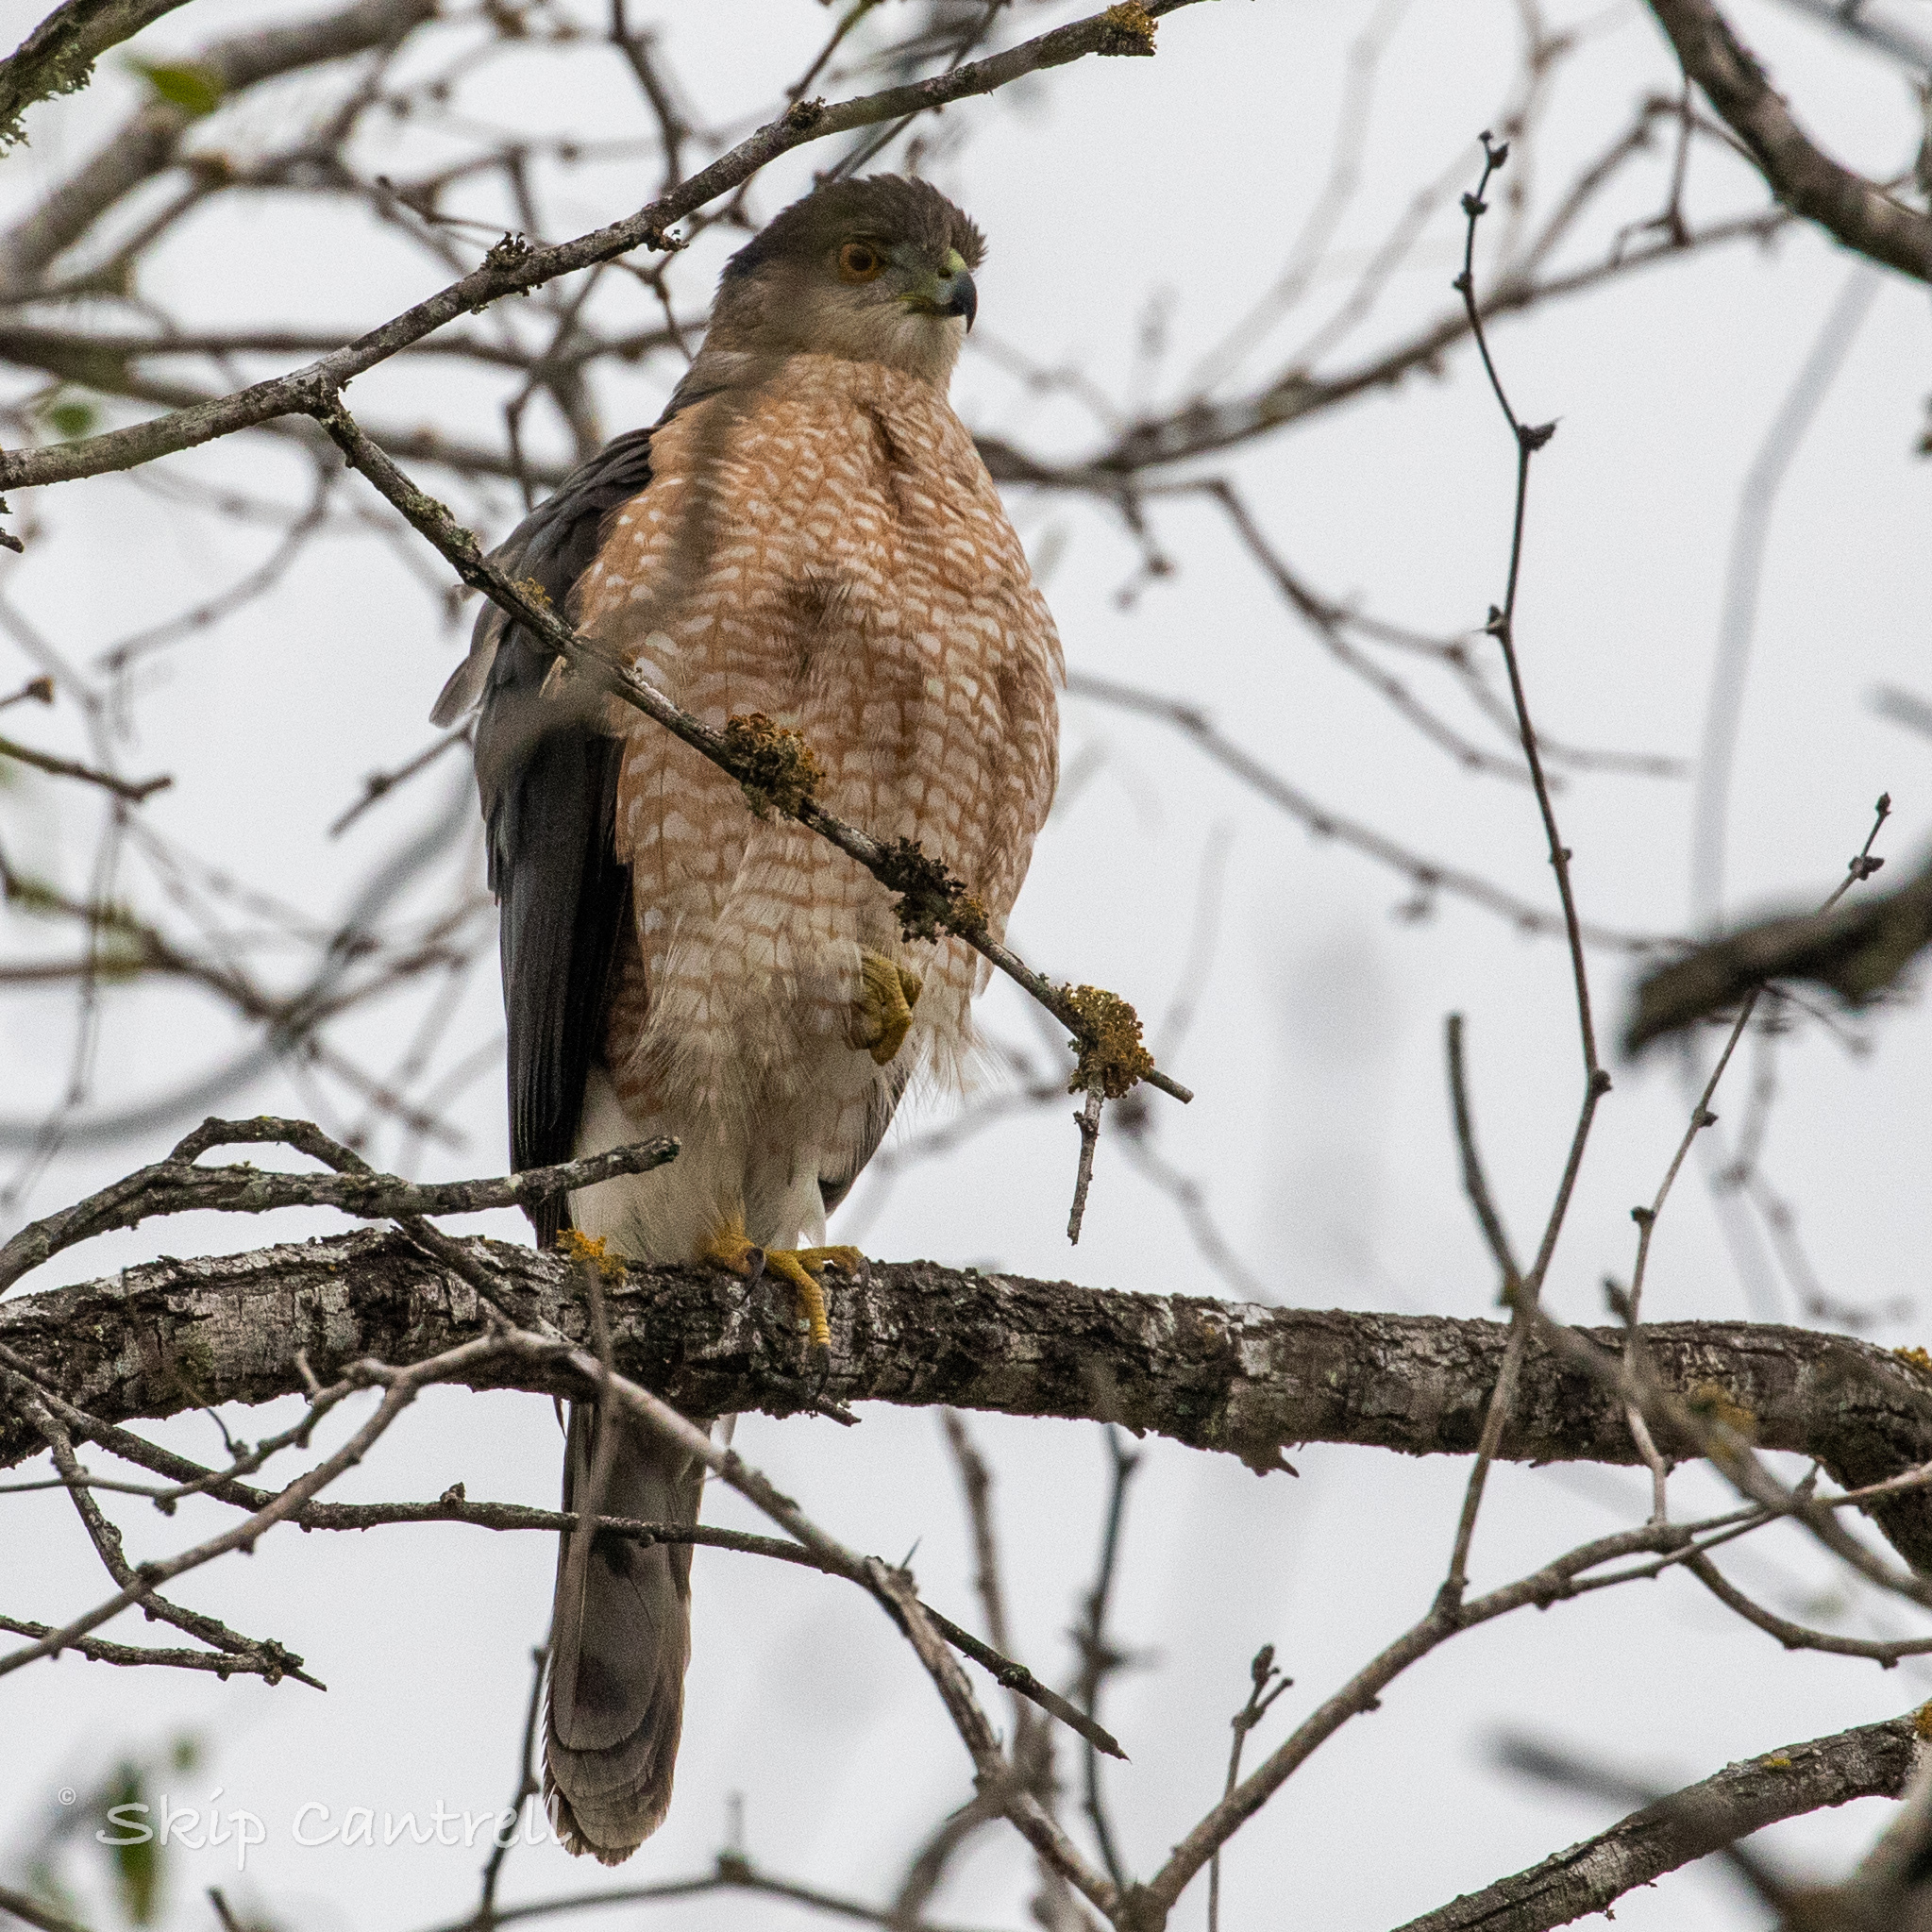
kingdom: Animalia
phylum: Chordata
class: Aves
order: Accipitriformes
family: Accipitridae
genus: Accipiter
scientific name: Accipiter cooperii
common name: Cooper's hawk
